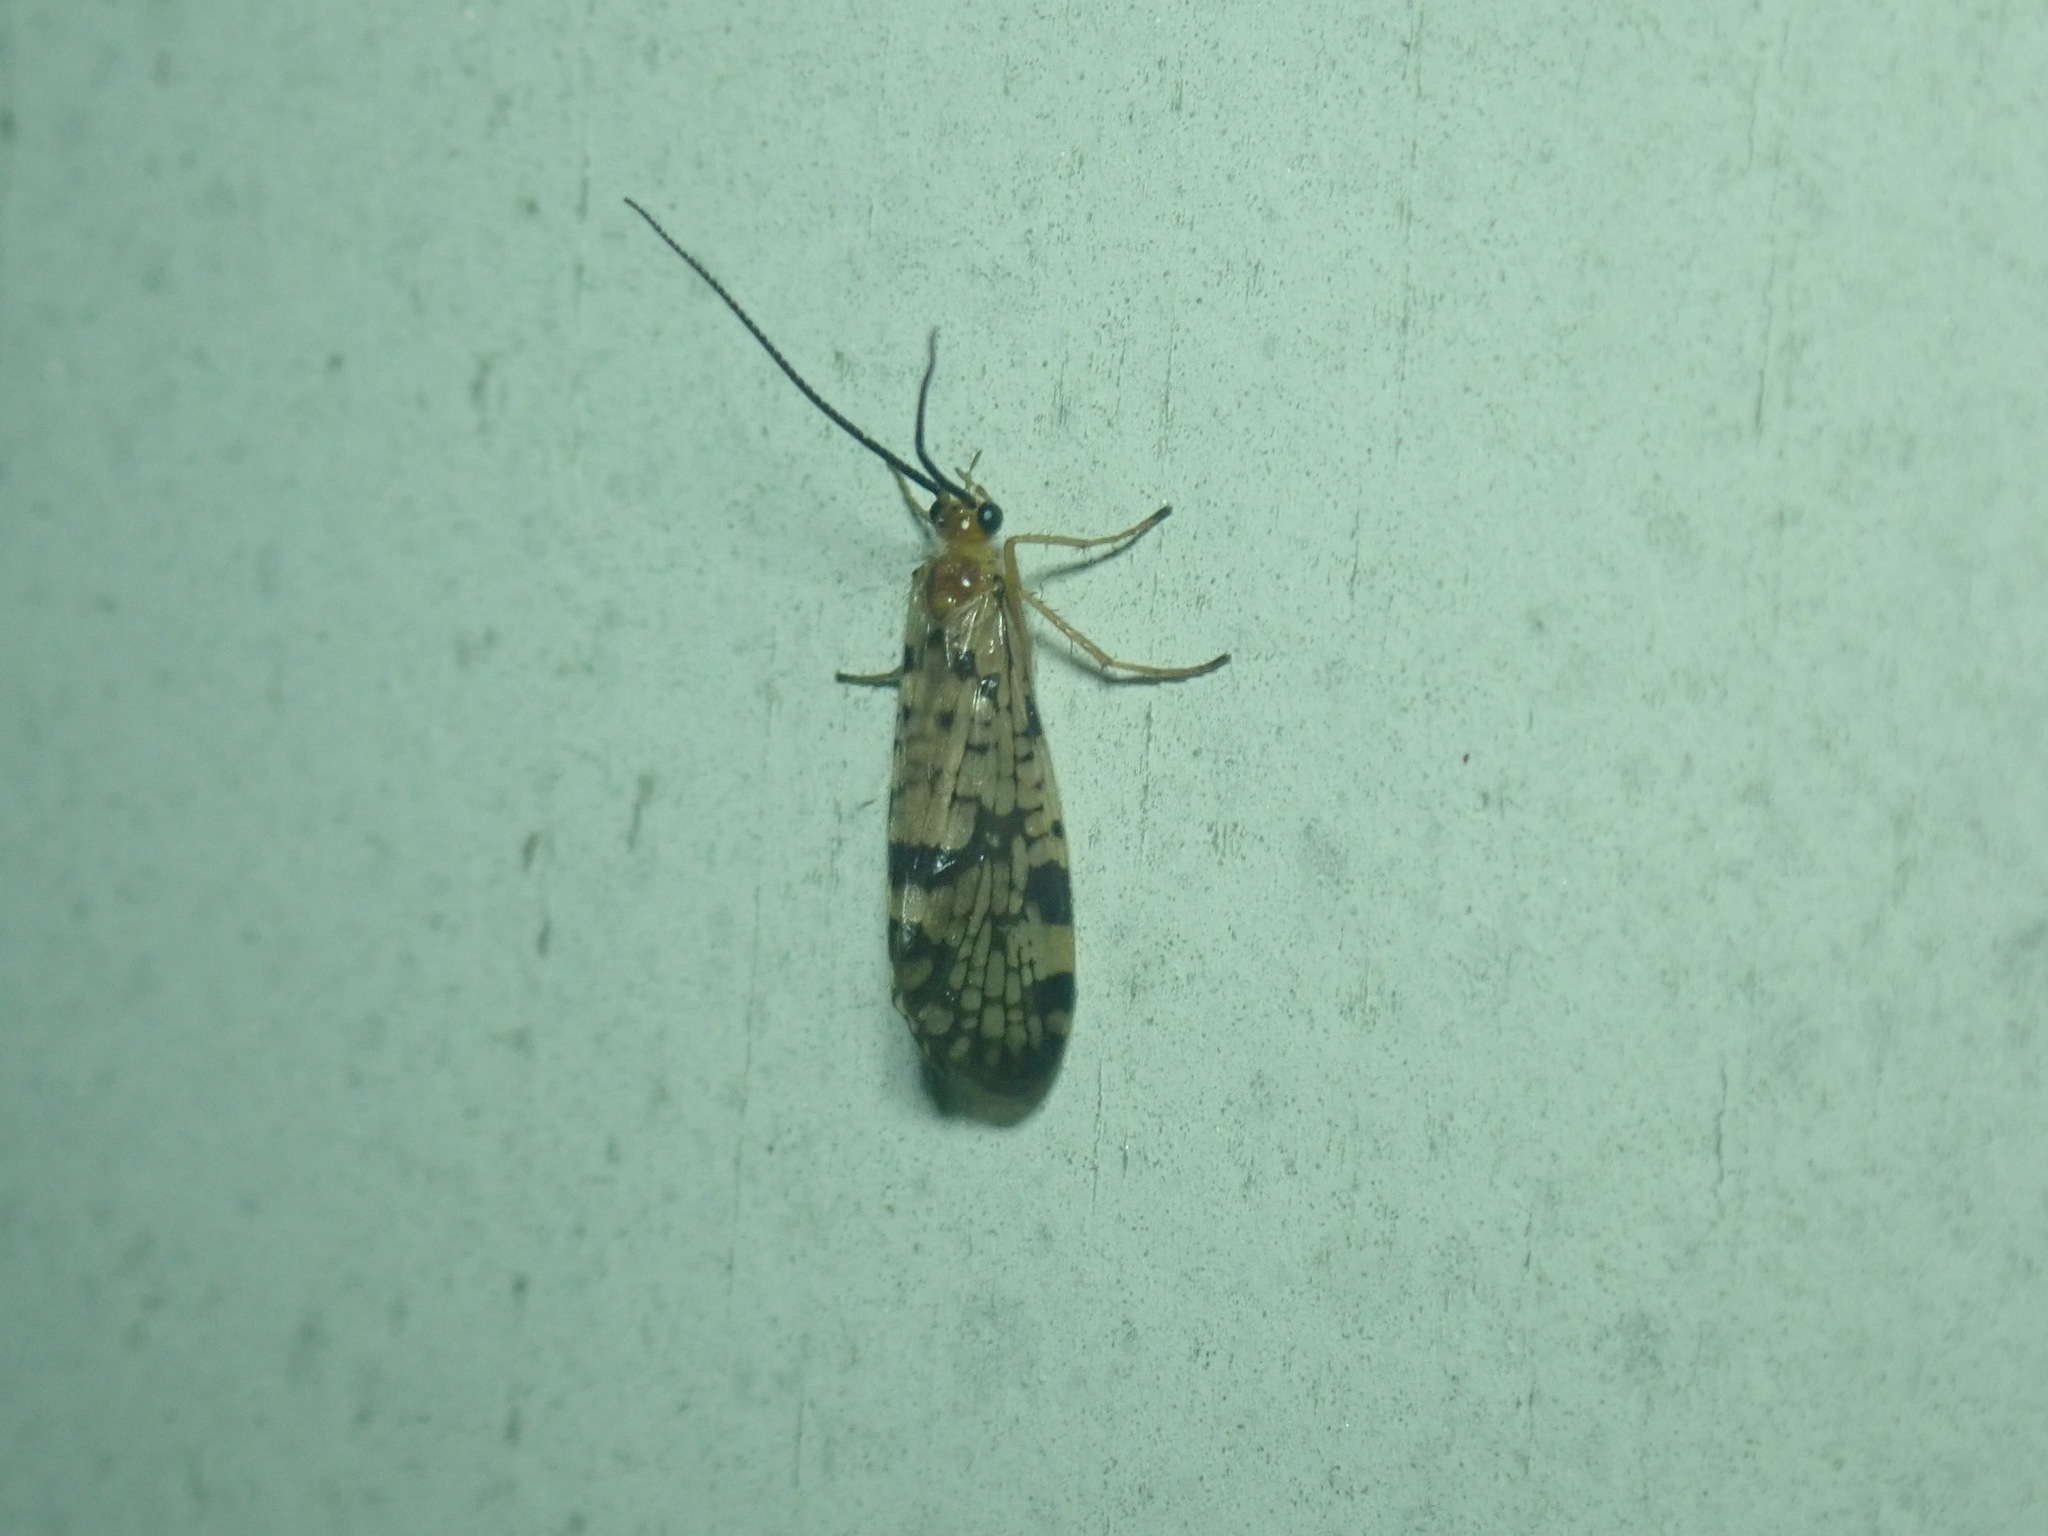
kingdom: Animalia
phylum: Arthropoda
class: Insecta
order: Trichoptera
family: Phryganeidae
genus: Banksiola
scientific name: Banksiola dossuaria
